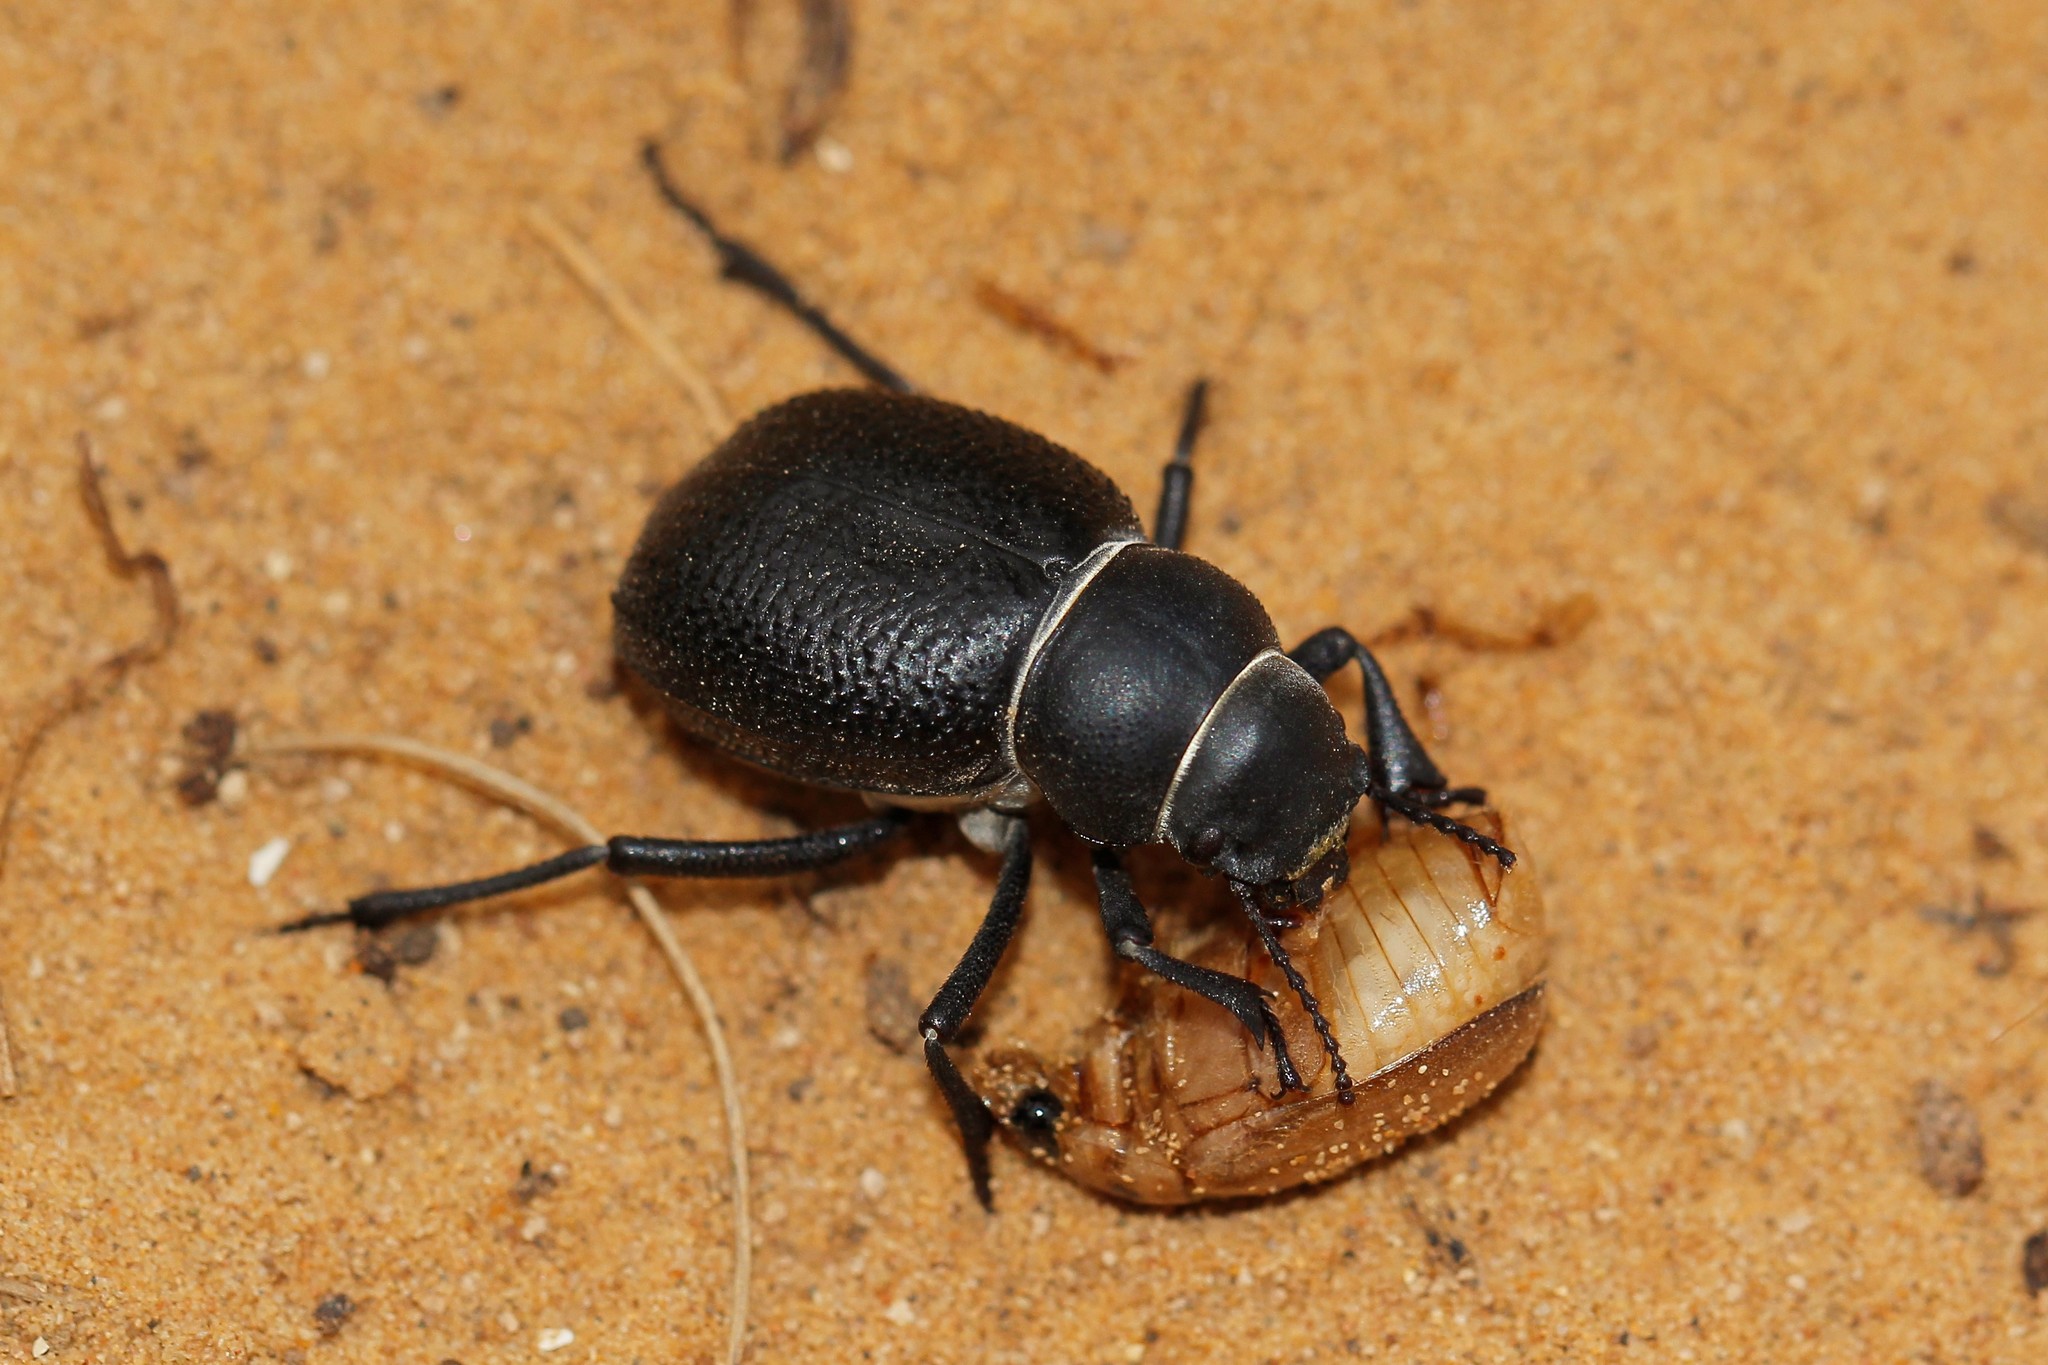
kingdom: Animalia
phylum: Arthropoda
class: Insecta
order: Coleoptera
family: Tenebrionidae
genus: Pimelia
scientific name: Pimelia capito
